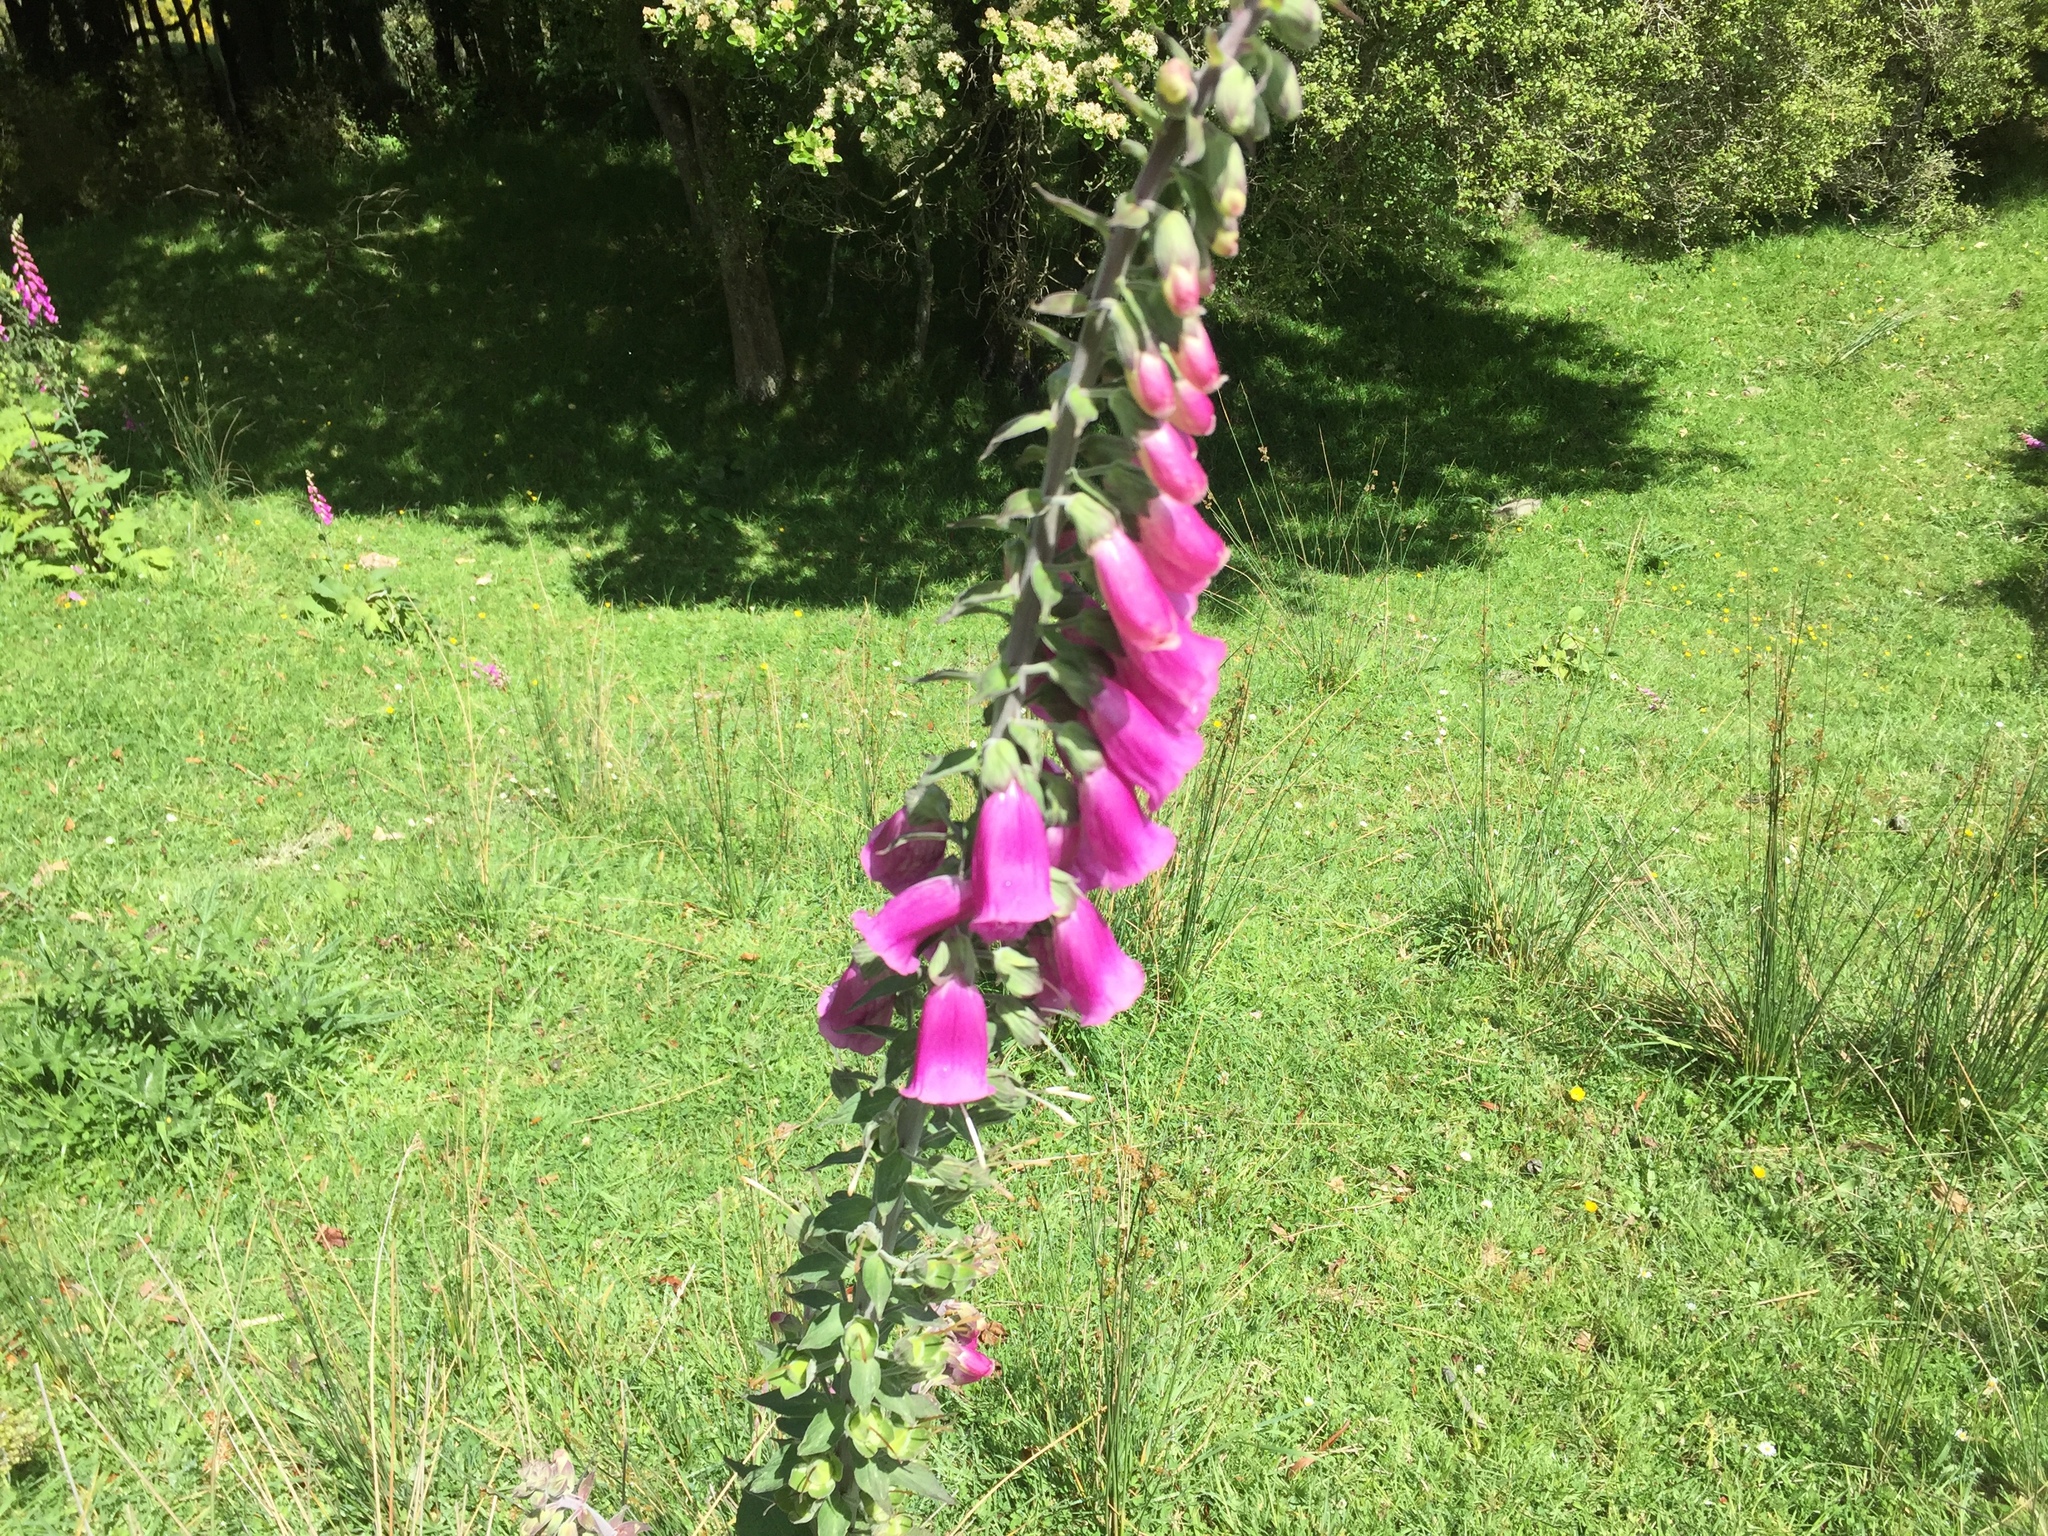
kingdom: Plantae
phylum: Tracheophyta
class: Magnoliopsida
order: Lamiales
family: Plantaginaceae
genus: Digitalis
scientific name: Digitalis purpurea
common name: Foxglove
